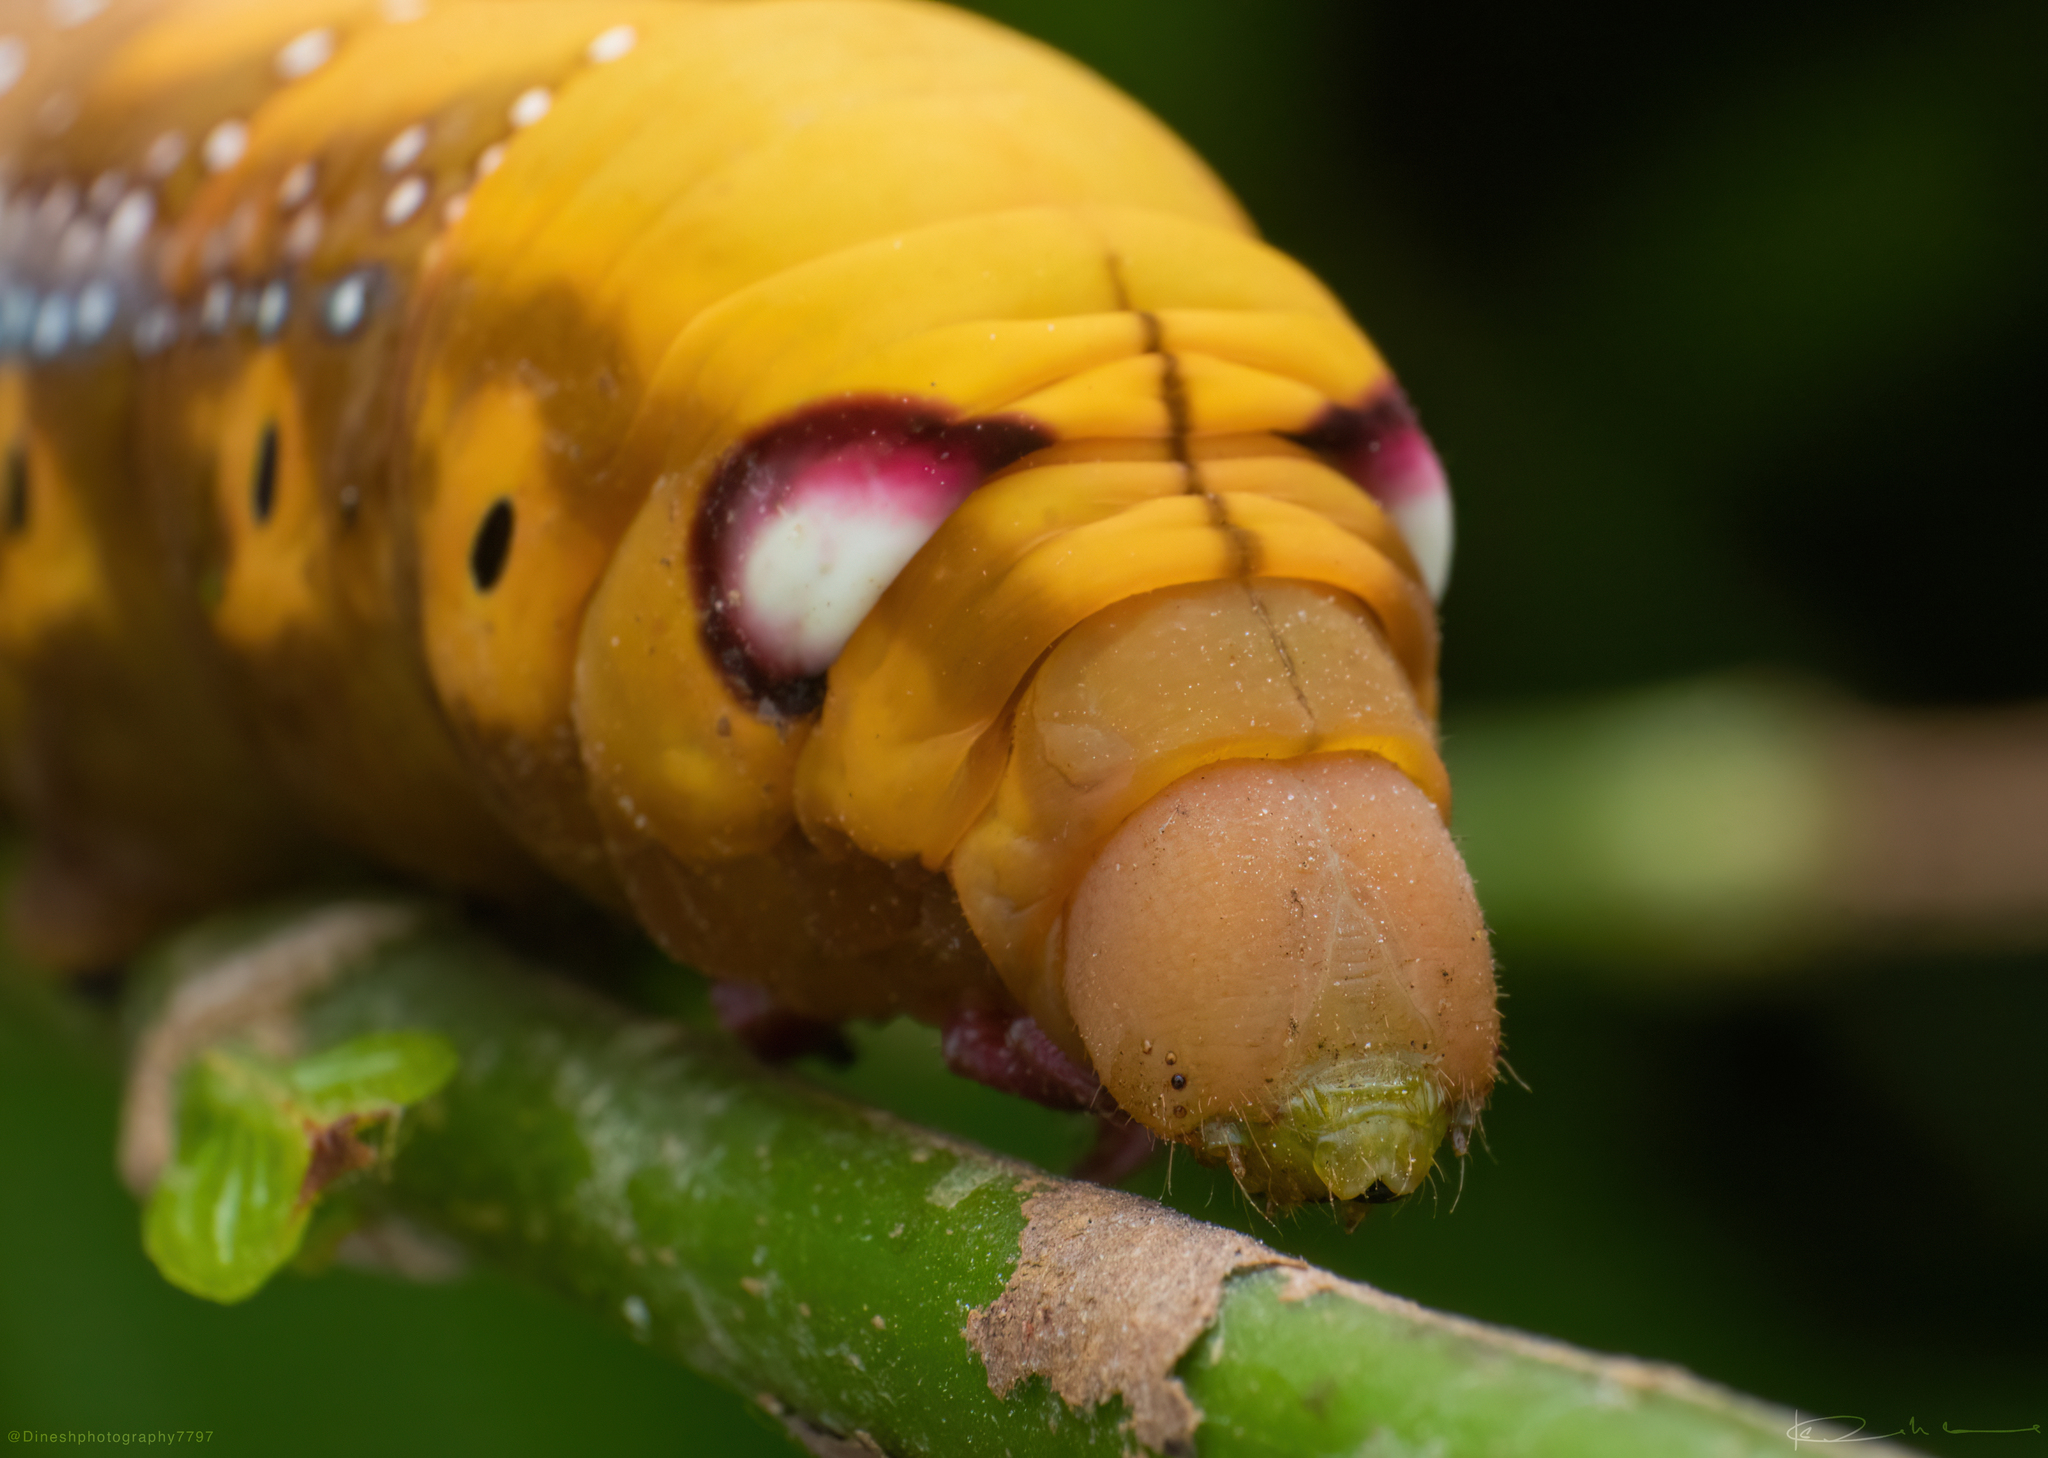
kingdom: Animalia
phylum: Arthropoda
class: Insecta
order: Lepidoptera
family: Sphingidae
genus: Daphnis
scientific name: Daphnis nerii
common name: Oleander hawk-moth
